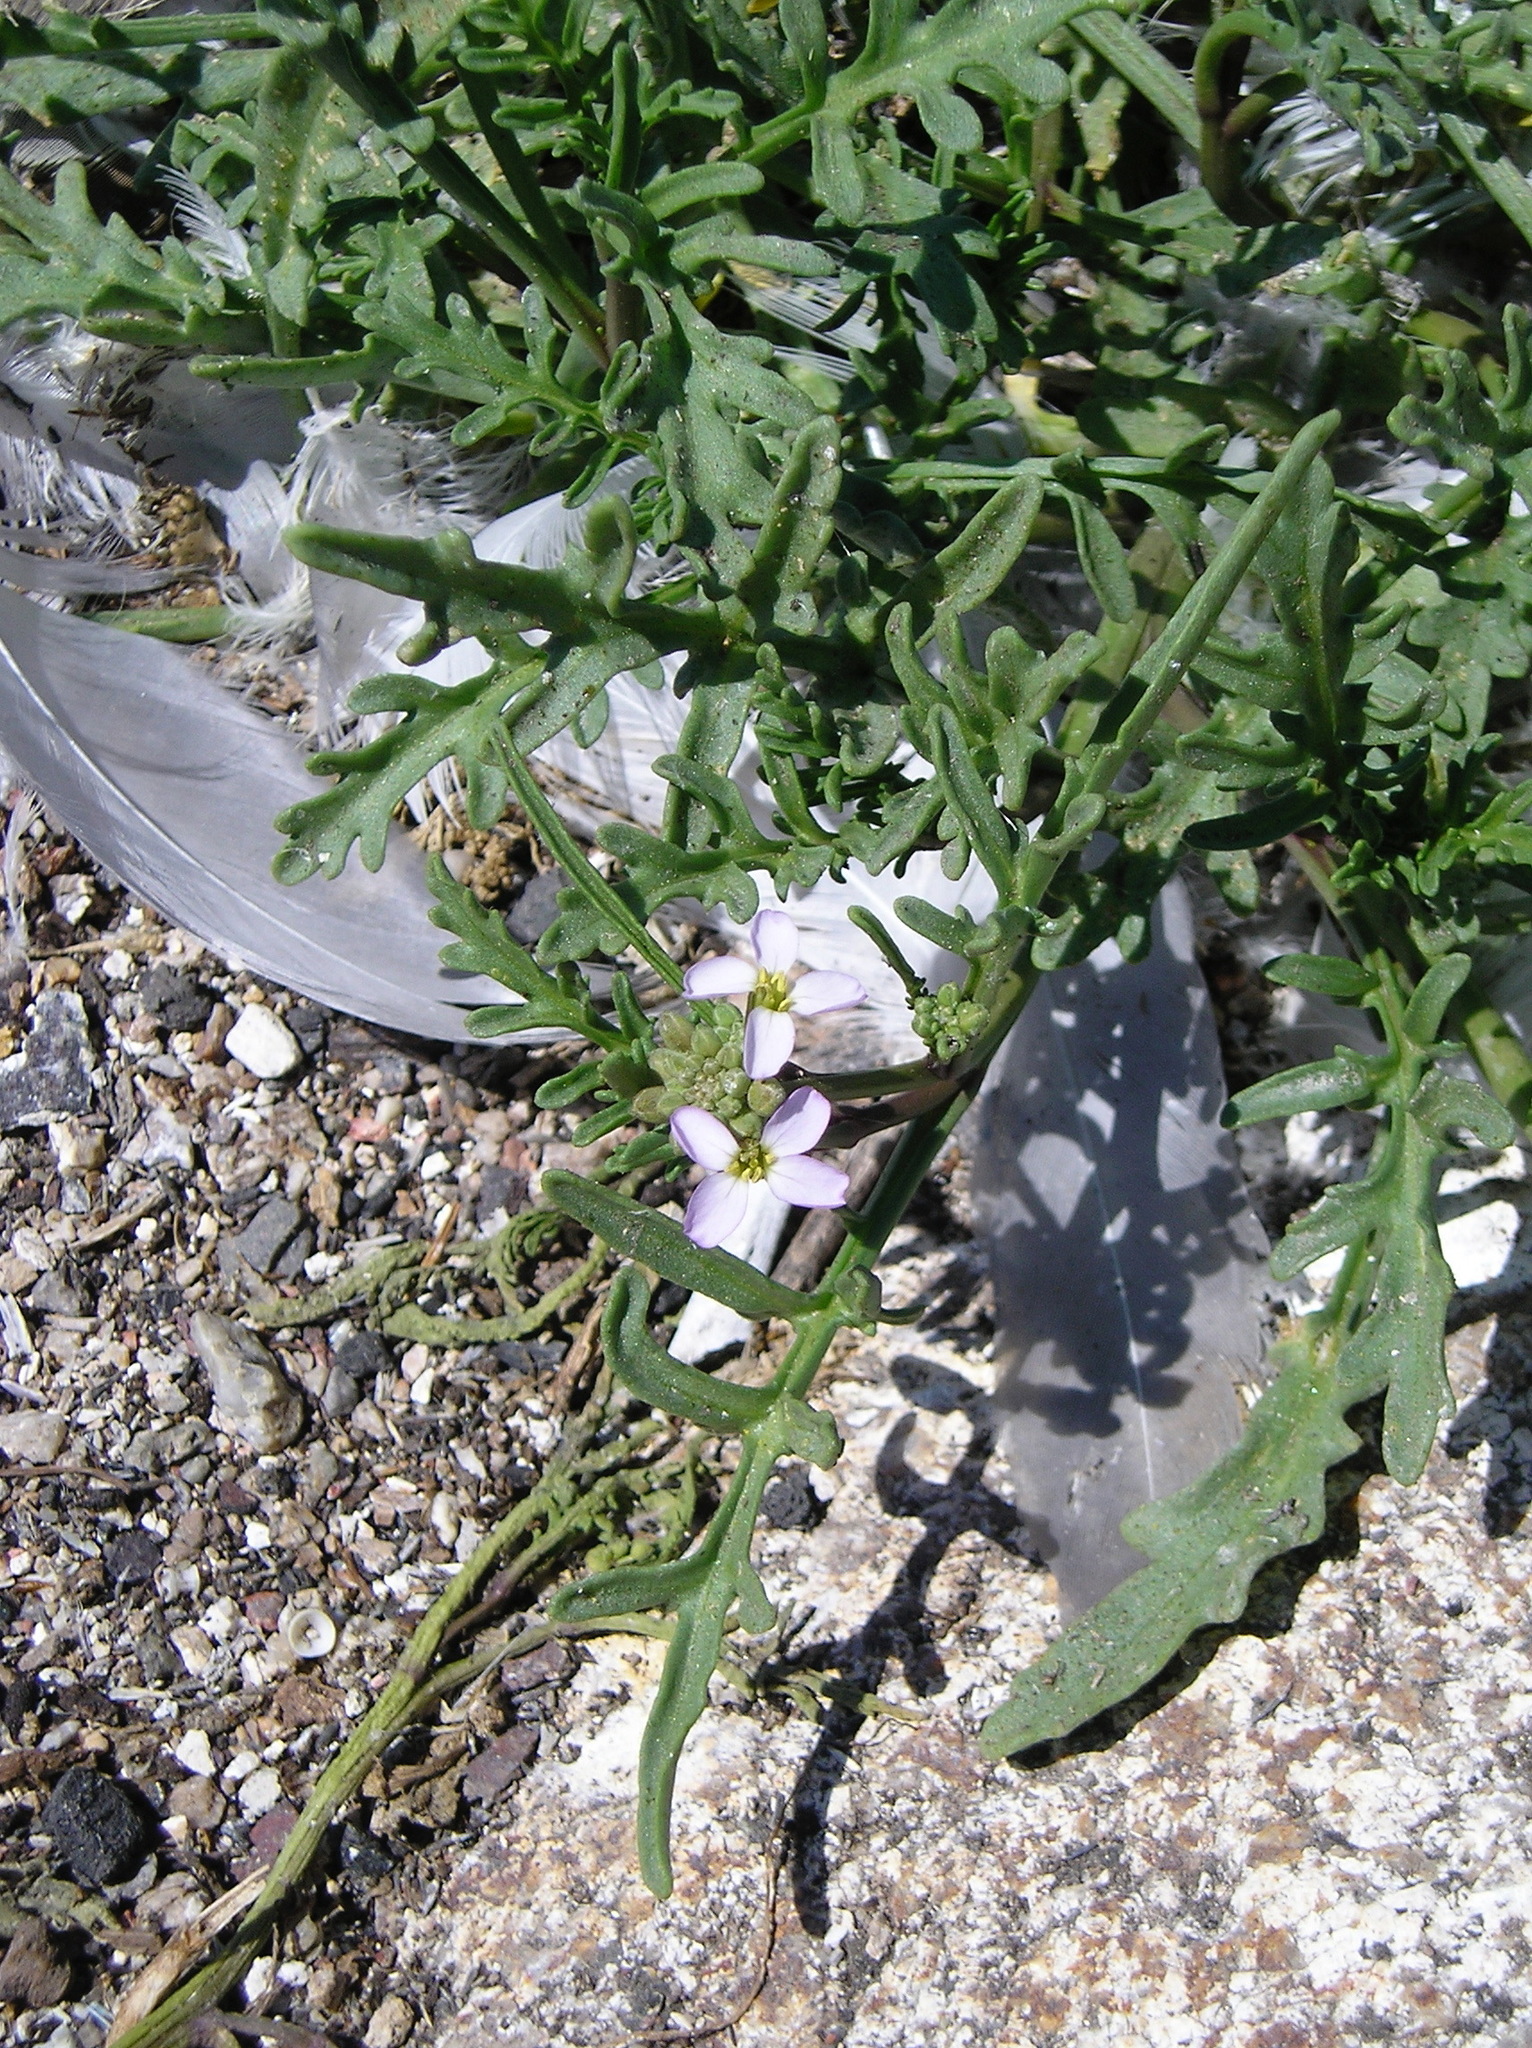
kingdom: Plantae
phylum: Tracheophyta
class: Magnoliopsida
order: Brassicales
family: Brassicaceae
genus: Cakile
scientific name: Cakile maritima
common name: Sea rocket
